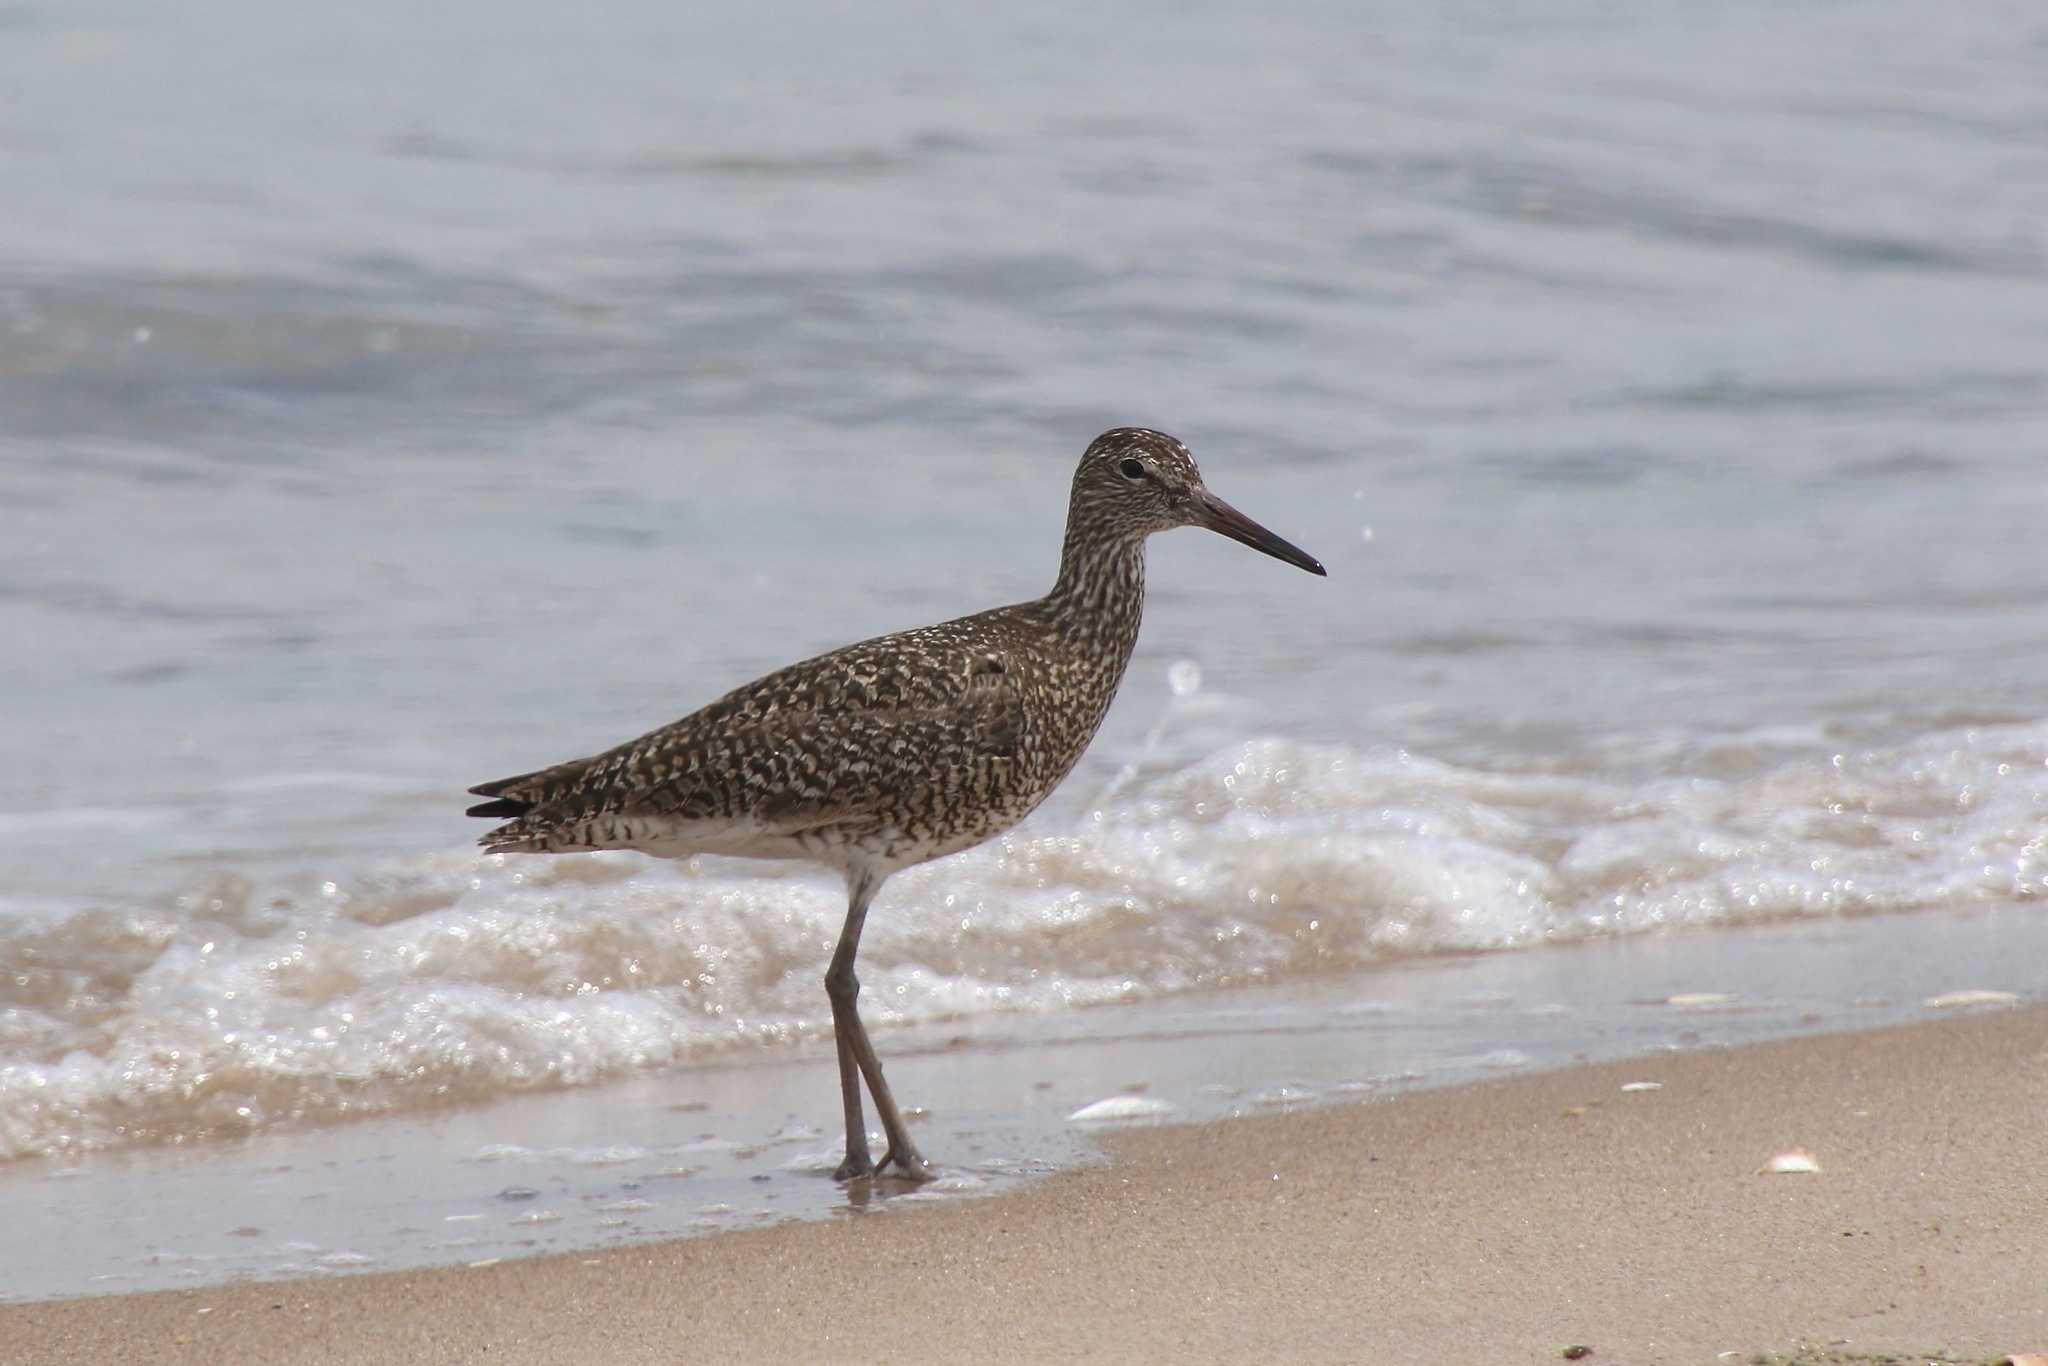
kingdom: Animalia
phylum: Chordata
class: Aves
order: Charadriiformes
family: Scolopacidae
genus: Tringa
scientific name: Tringa semipalmata
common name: Willet
